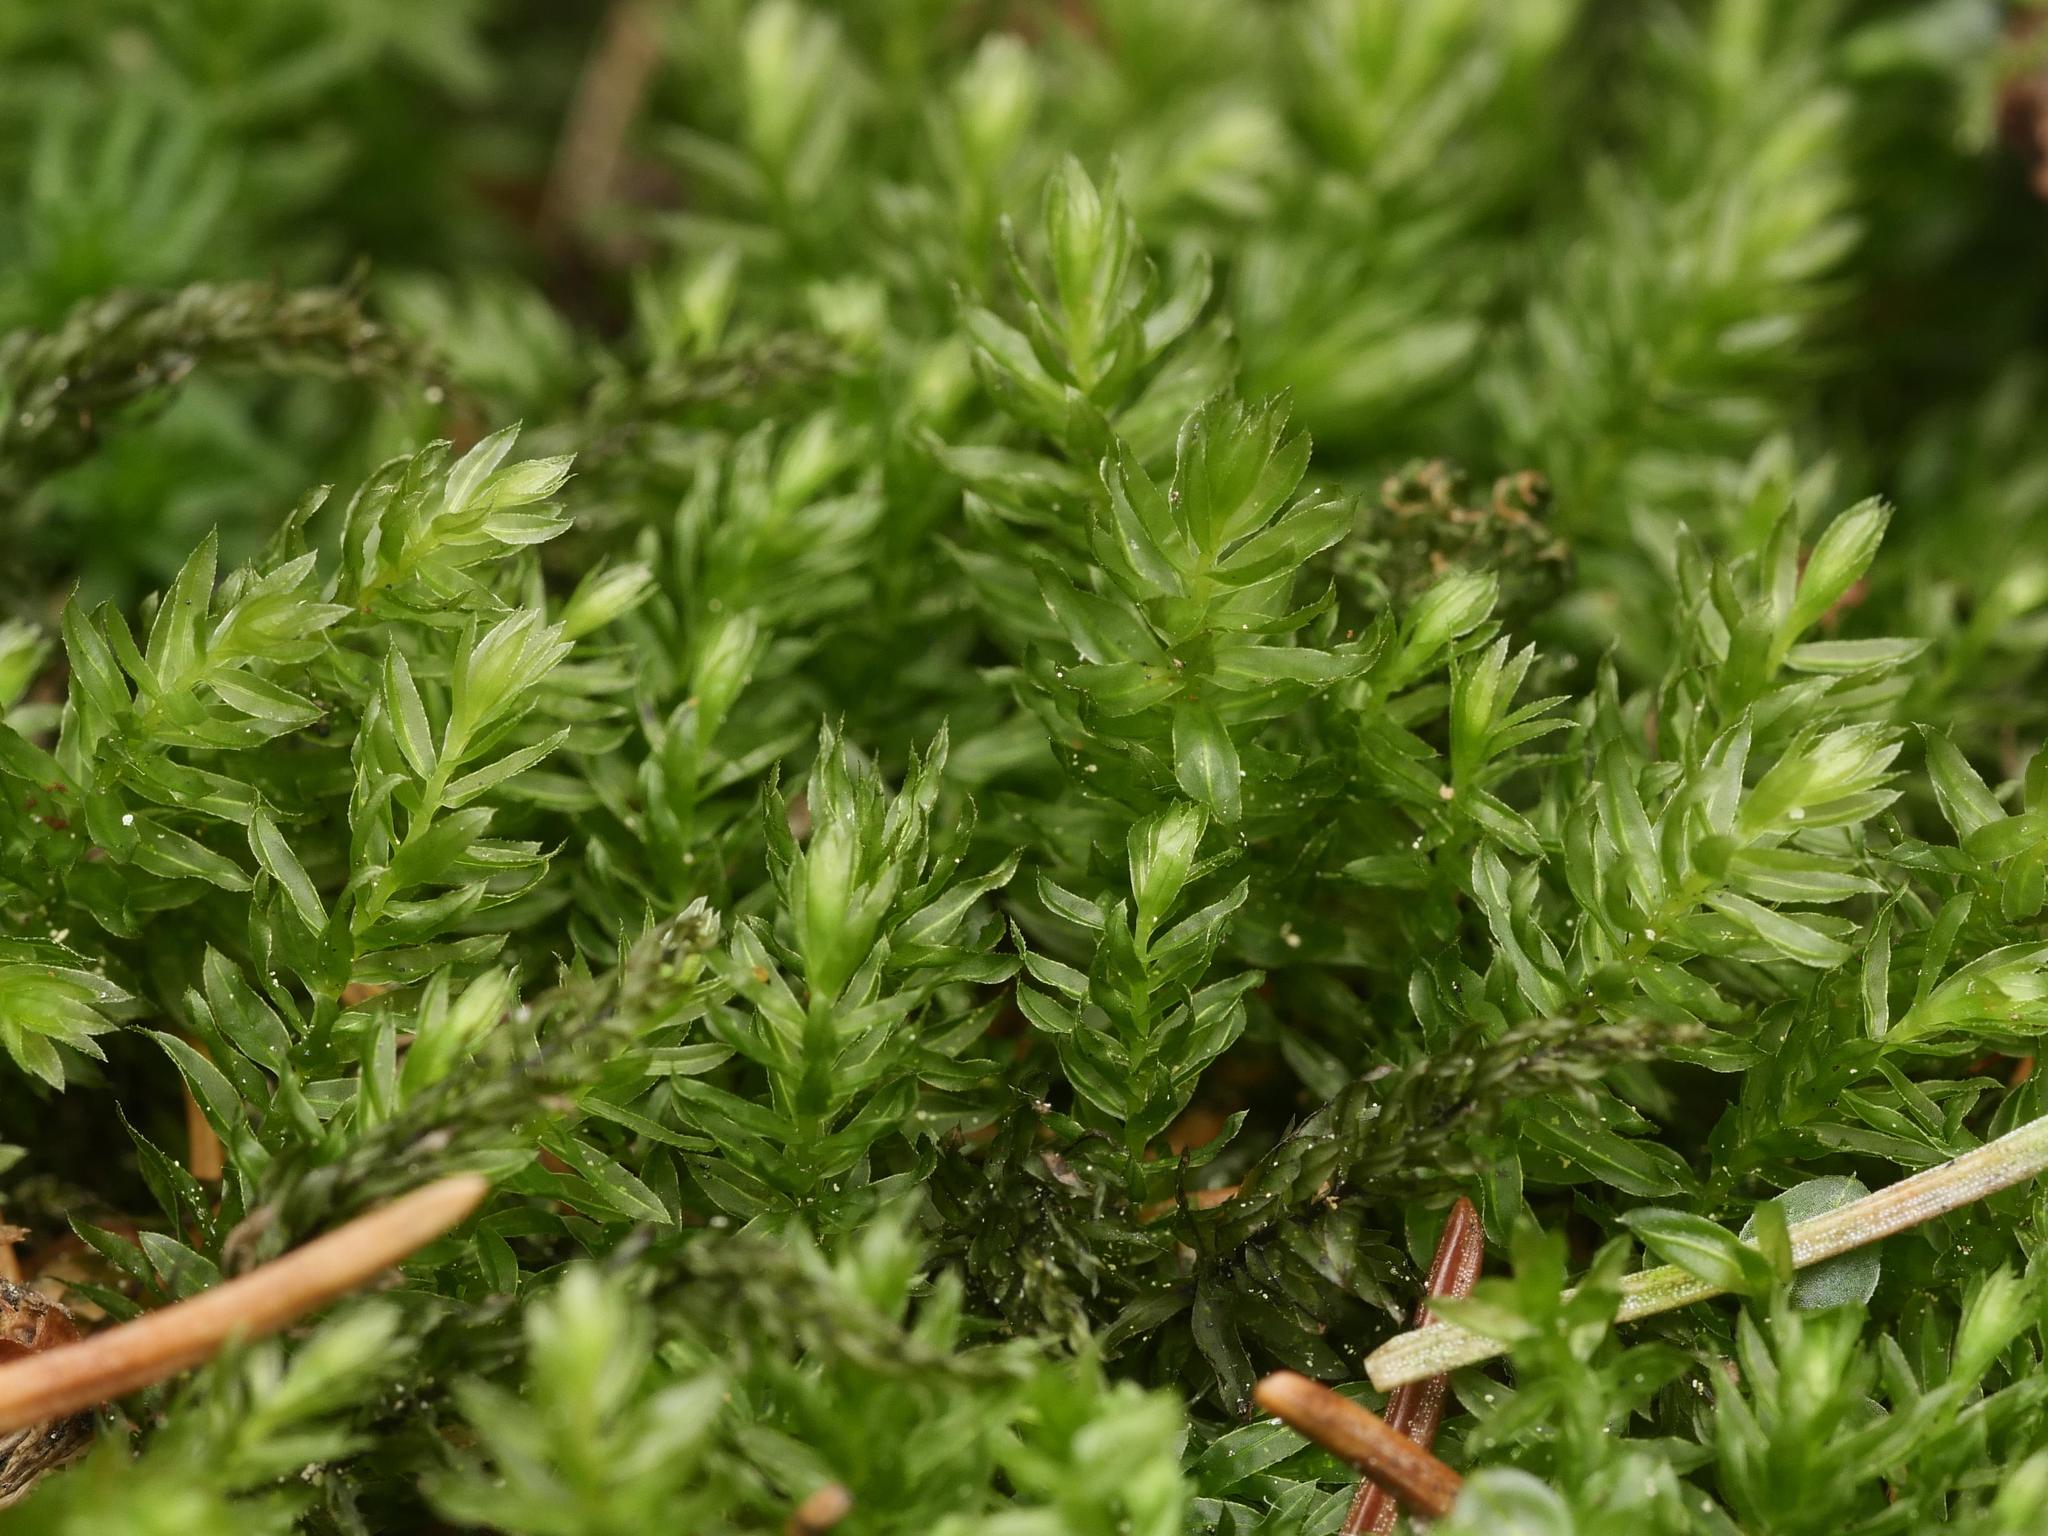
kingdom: Plantae
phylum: Bryophyta
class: Bryopsida
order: Bryales
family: Mniaceae
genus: Mnium
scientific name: Mnium hornum
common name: Swan's-neck leafy moss
